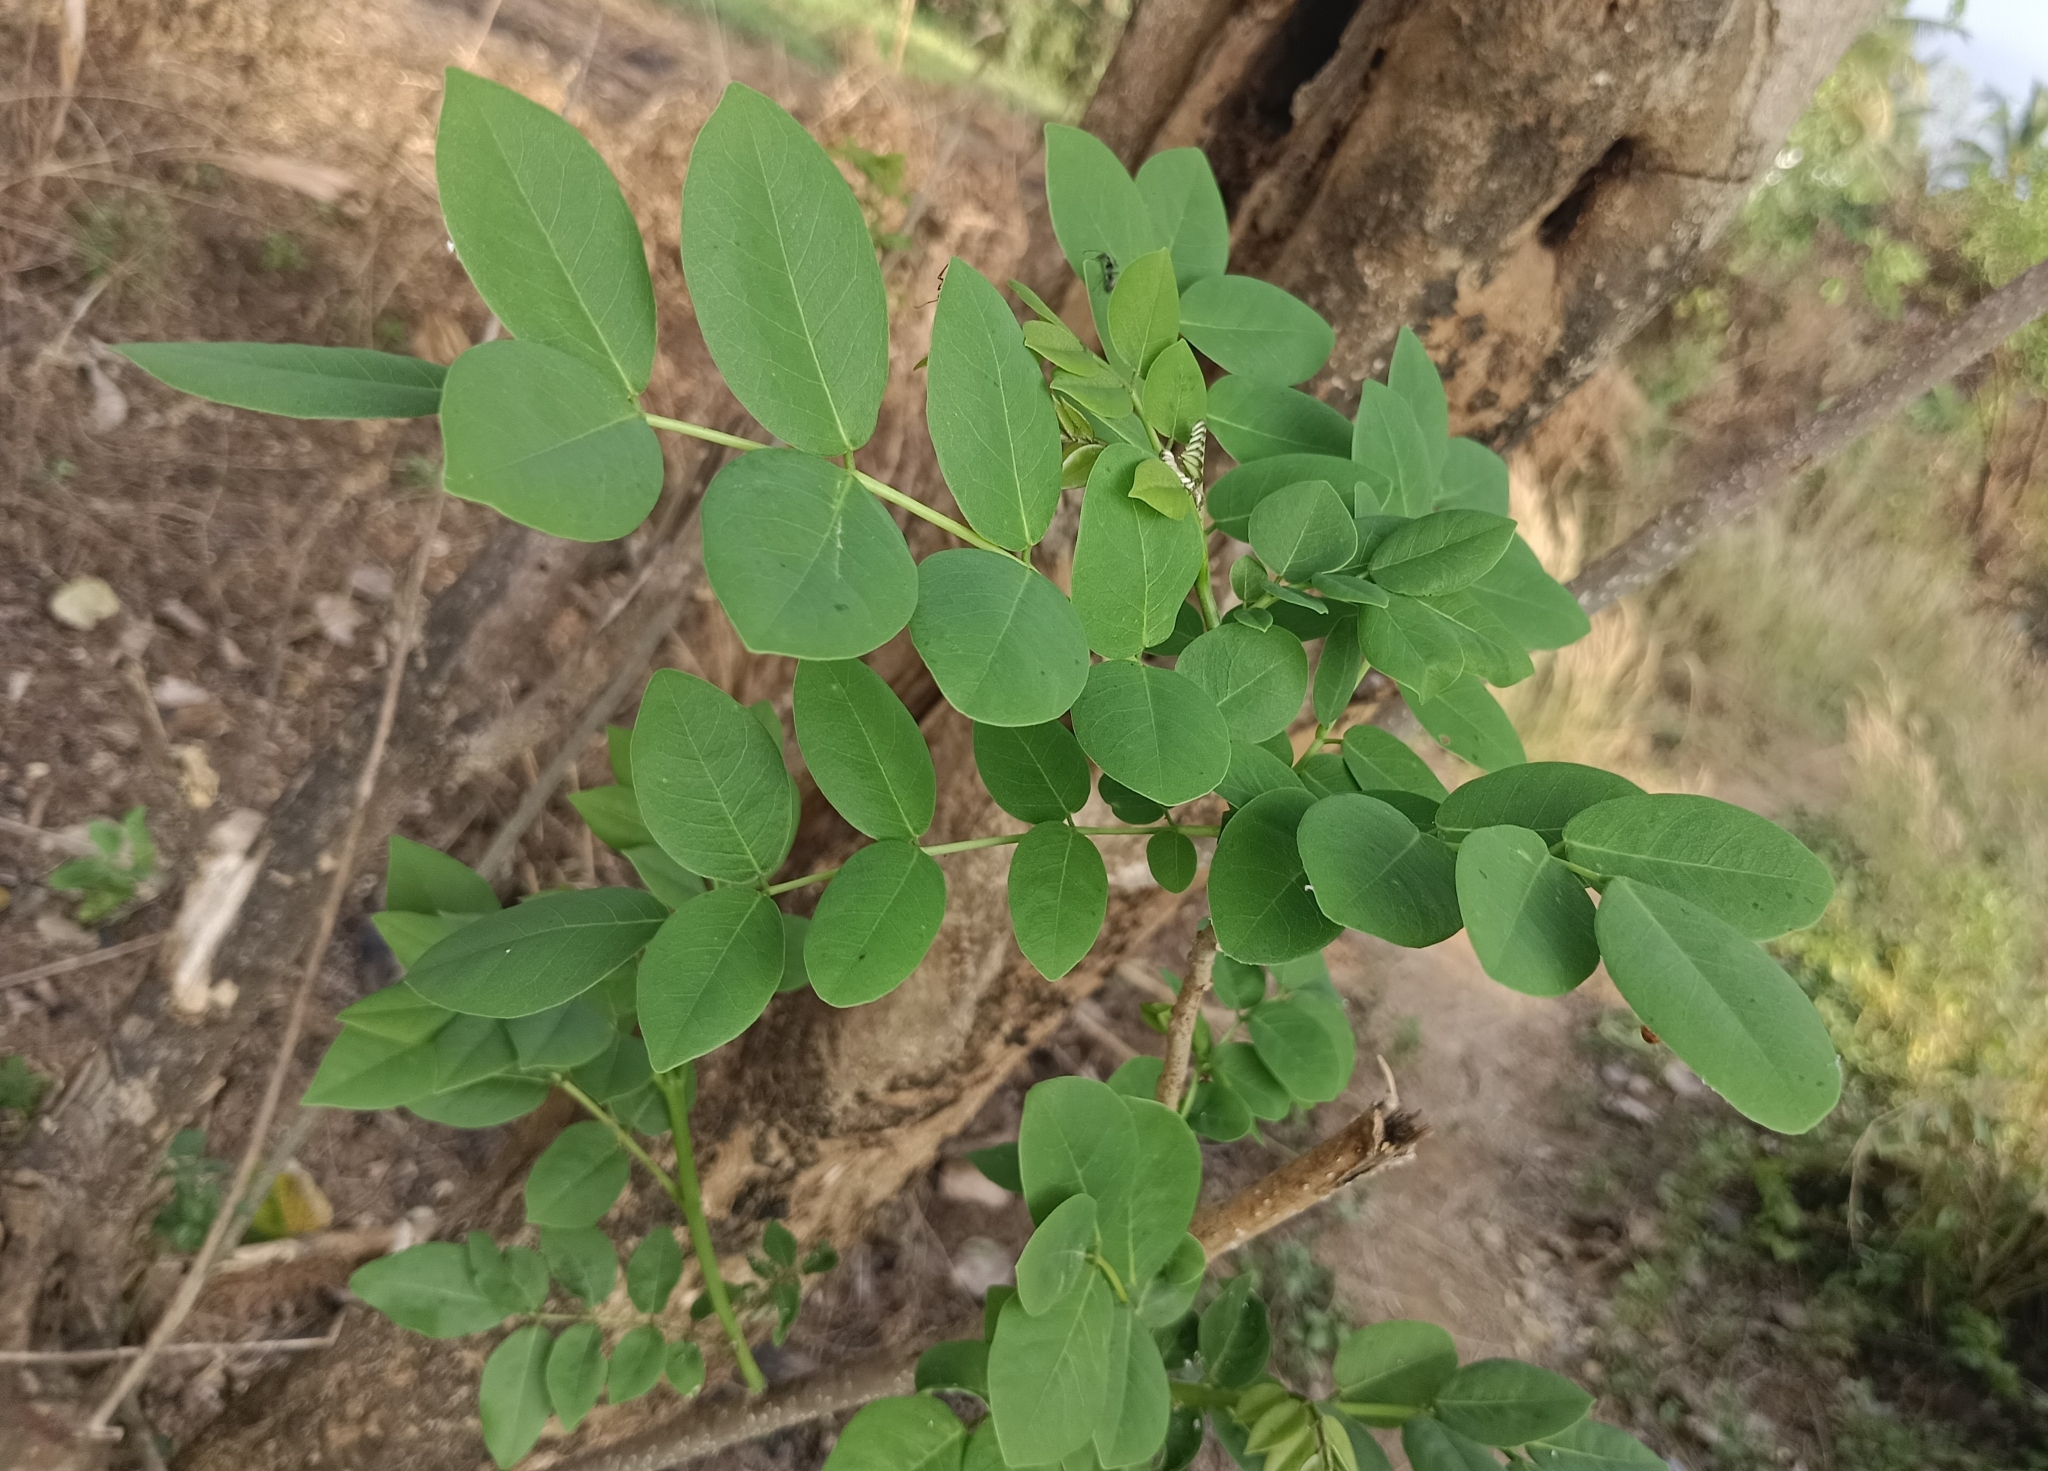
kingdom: Plantae
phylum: Tracheophyta
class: Magnoliopsida
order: Fabales
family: Fabaceae
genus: Gliricidia
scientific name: Gliricidia sepium
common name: Quickstick
